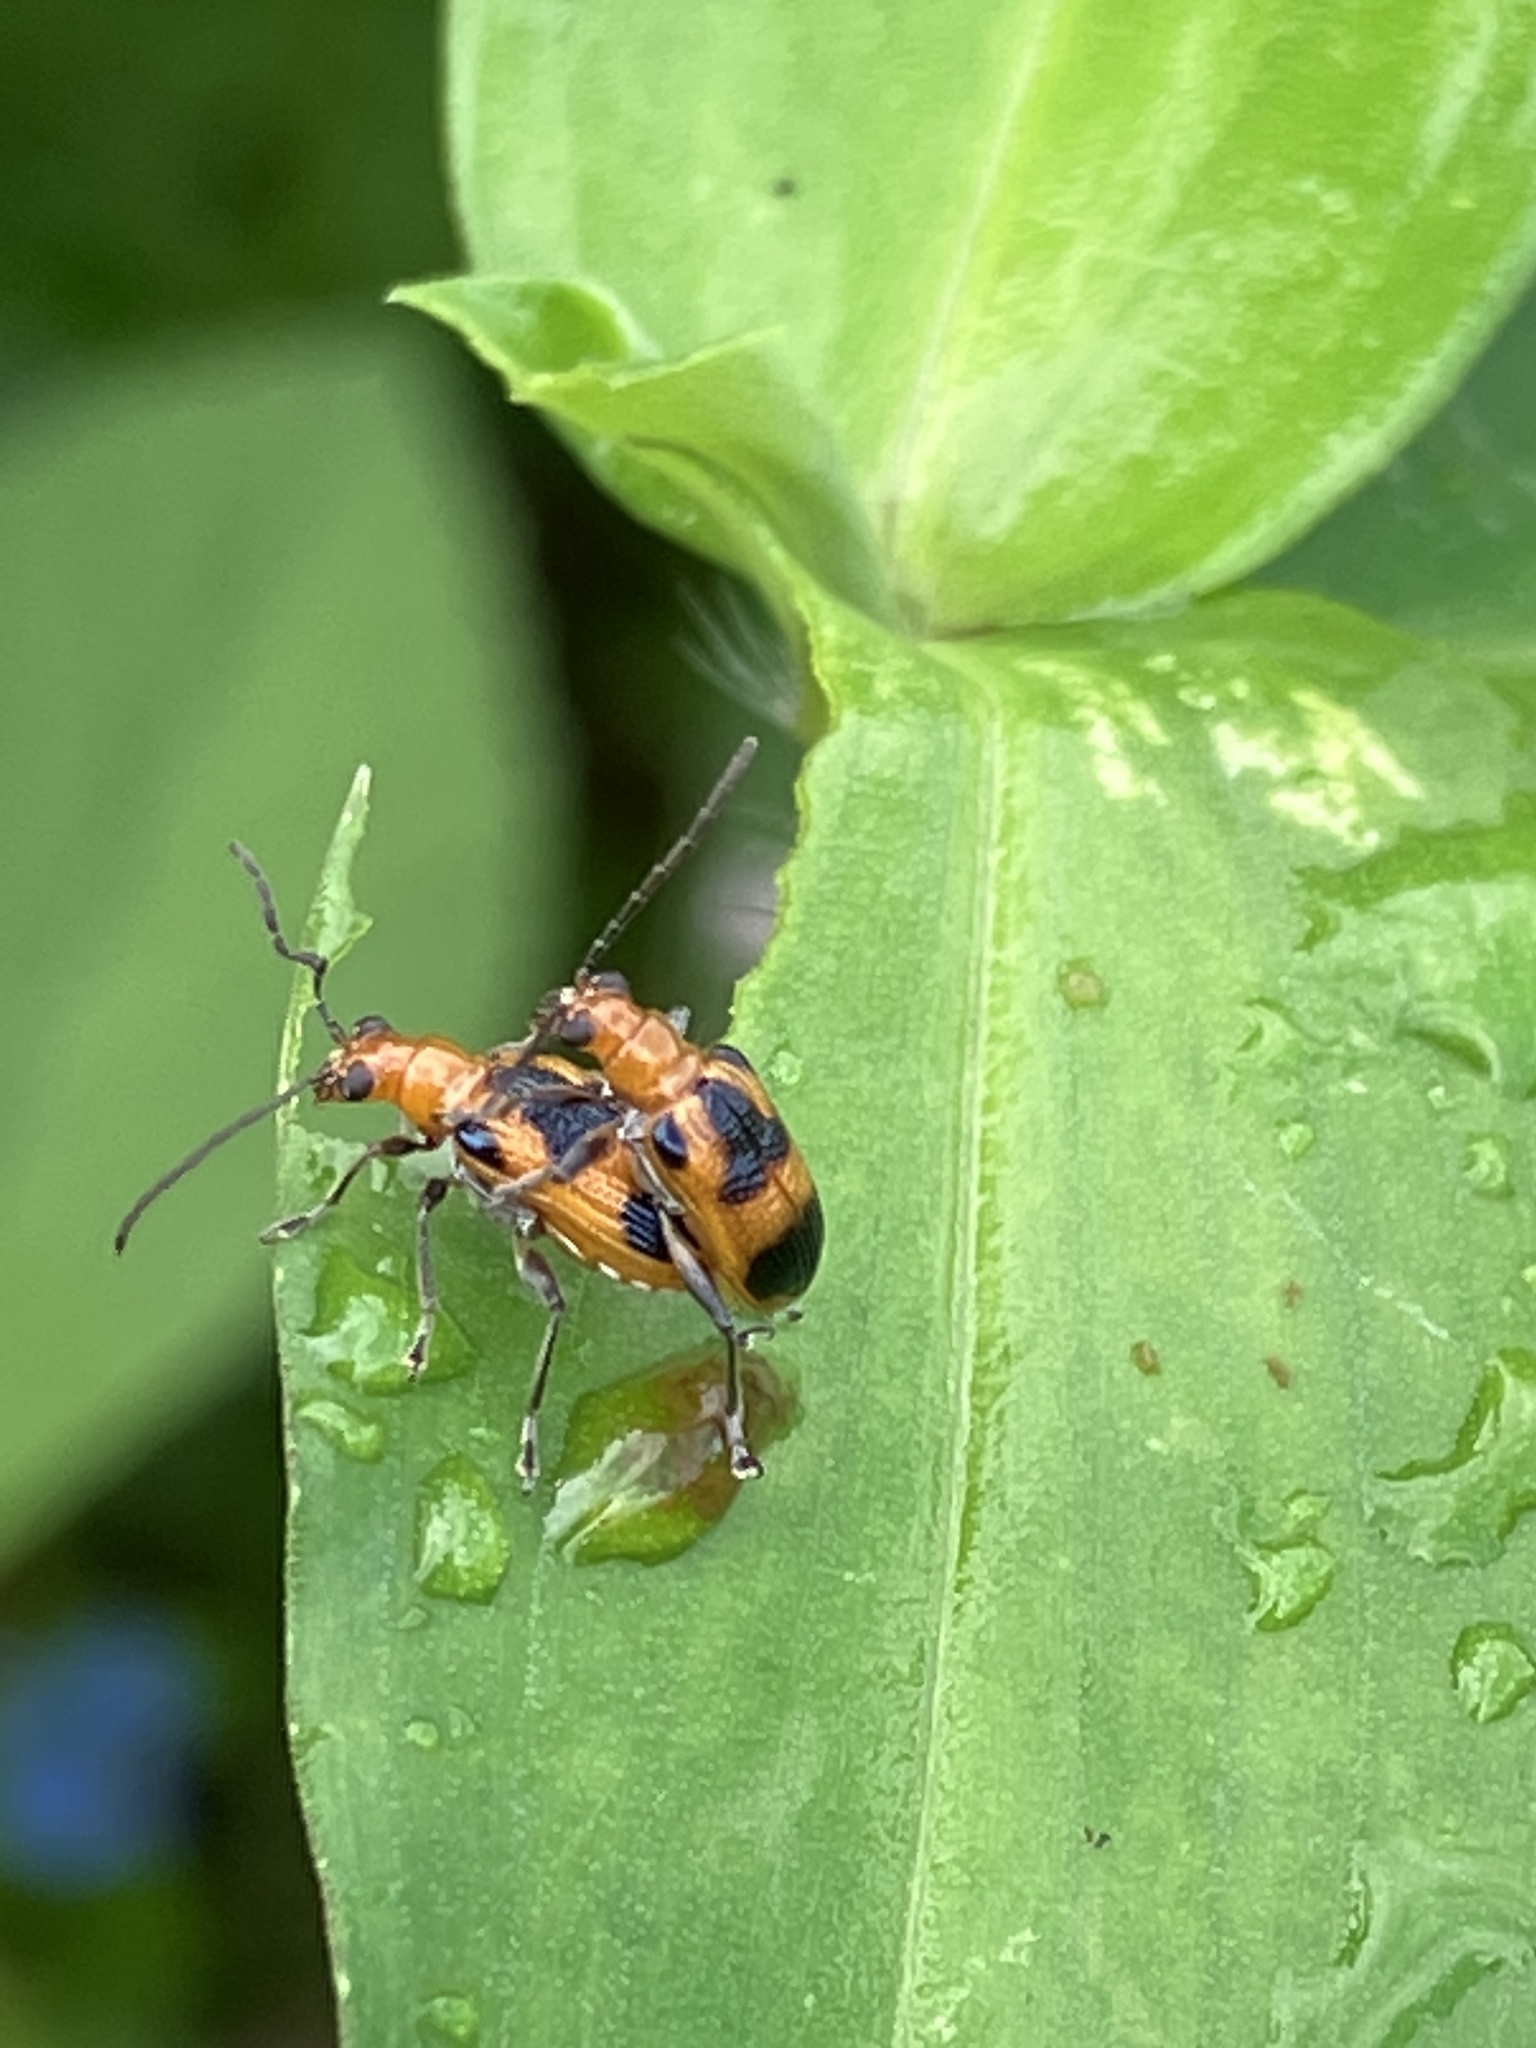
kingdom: Animalia
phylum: Arthropoda
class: Insecta
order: Coleoptera
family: Chrysomelidae
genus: Neolema
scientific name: Neolema dorsalis
